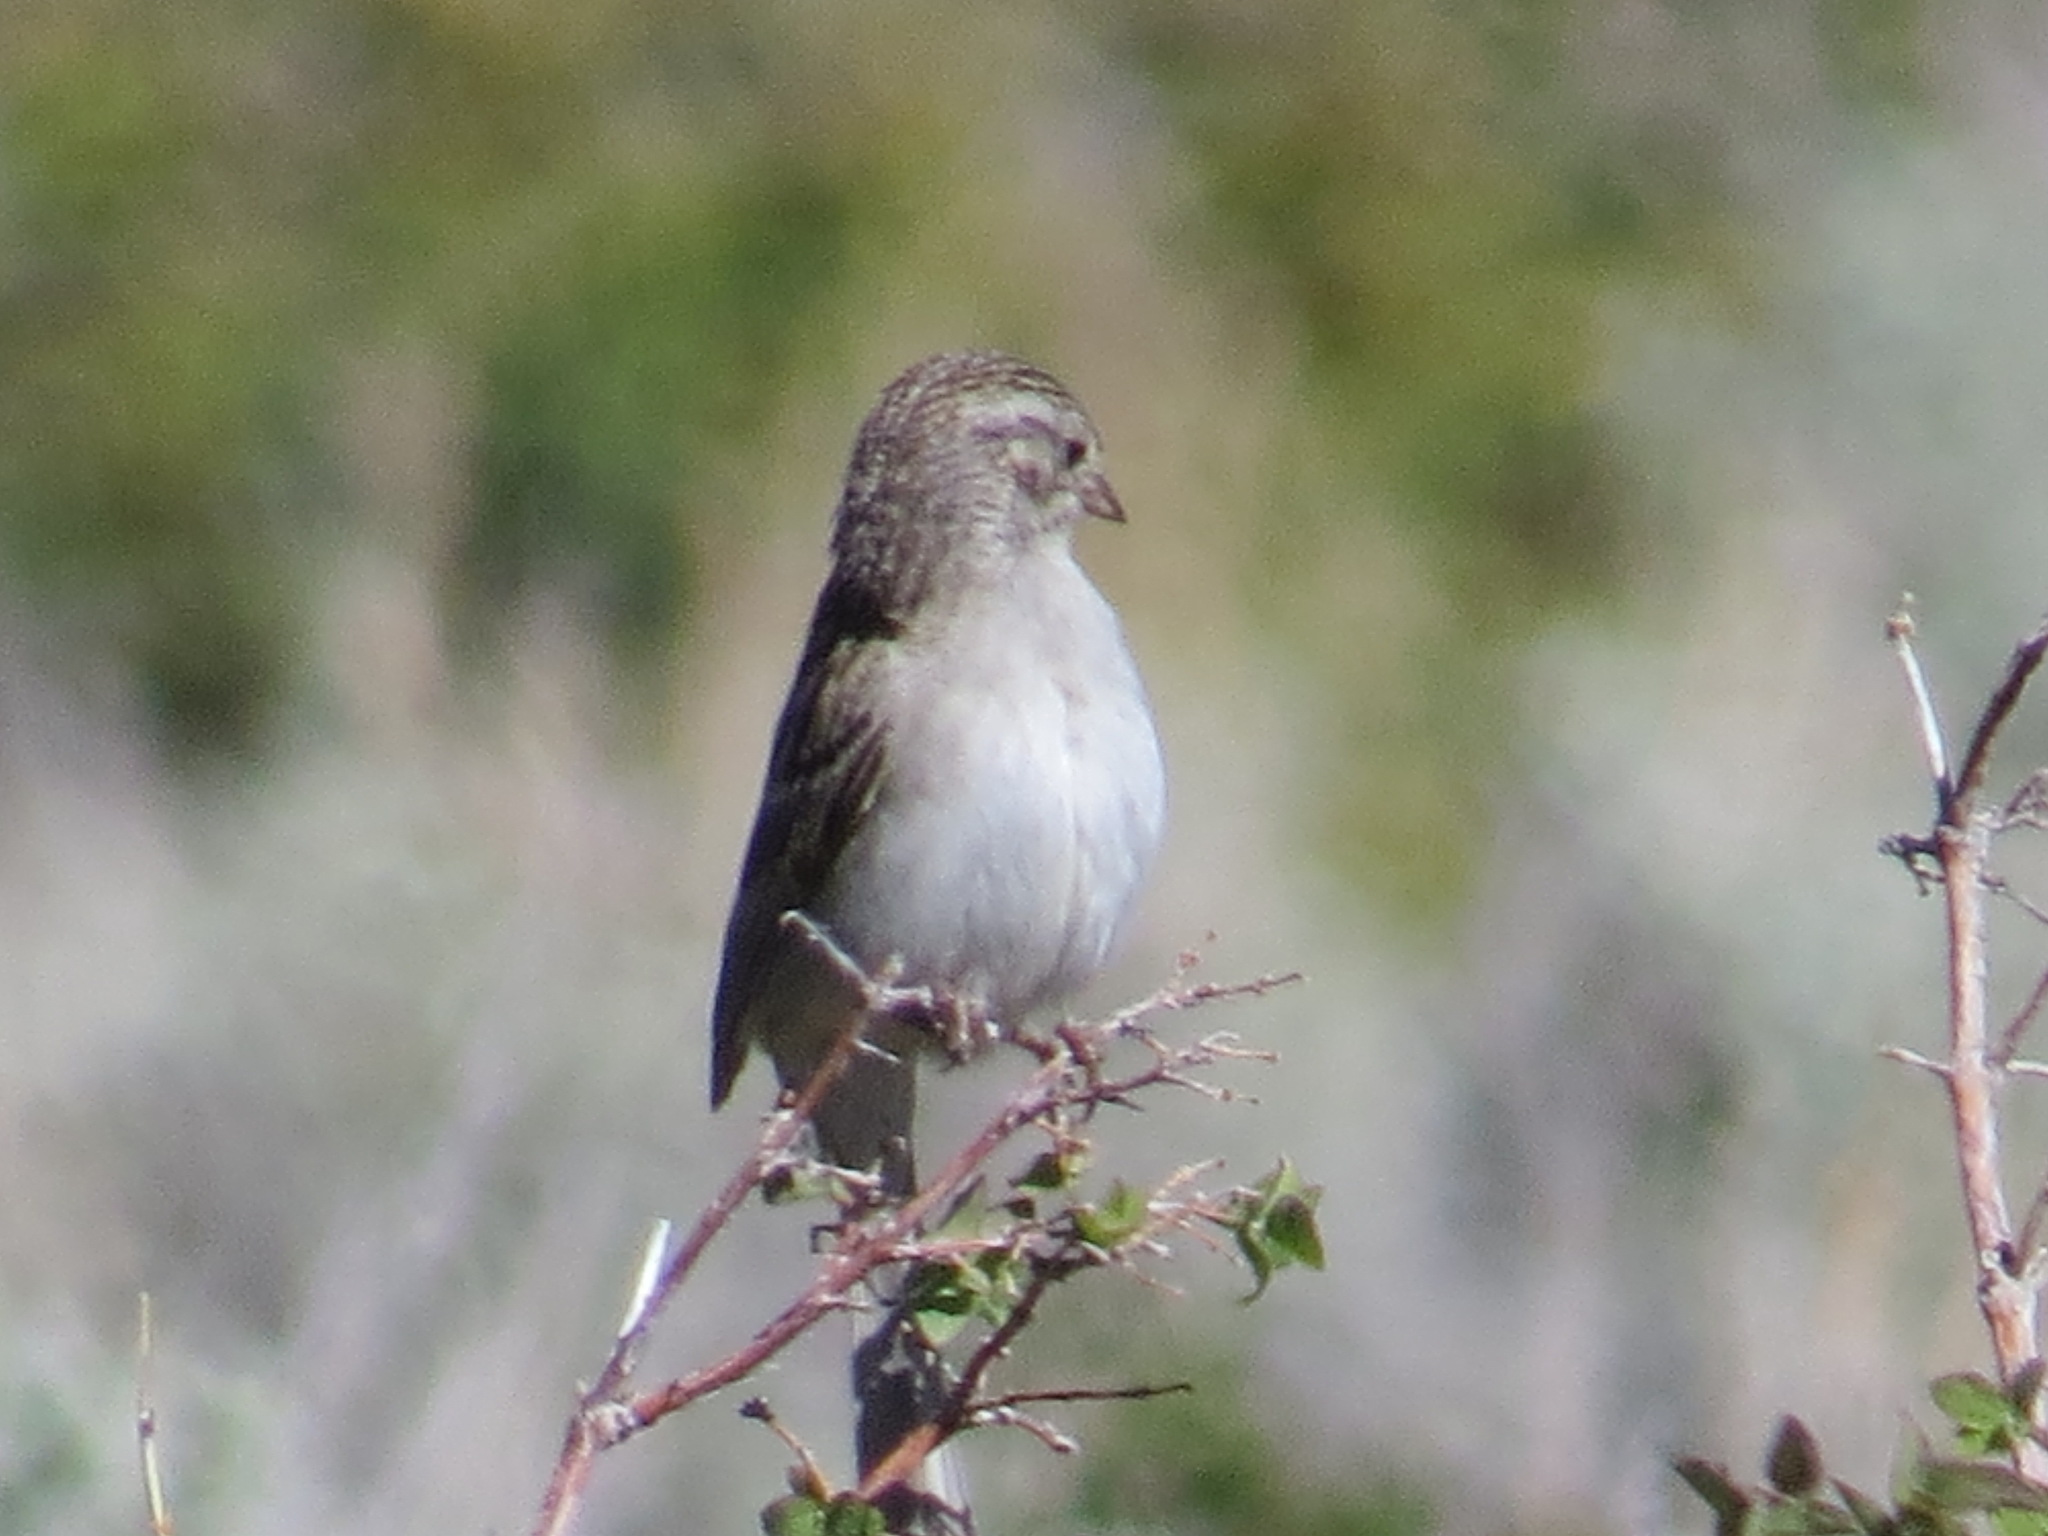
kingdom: Animalia
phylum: Chordata
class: Aves
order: Passeriformes
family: Passerellidae
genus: Spizella
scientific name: Spizella breweri
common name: Brewer's sparrow
